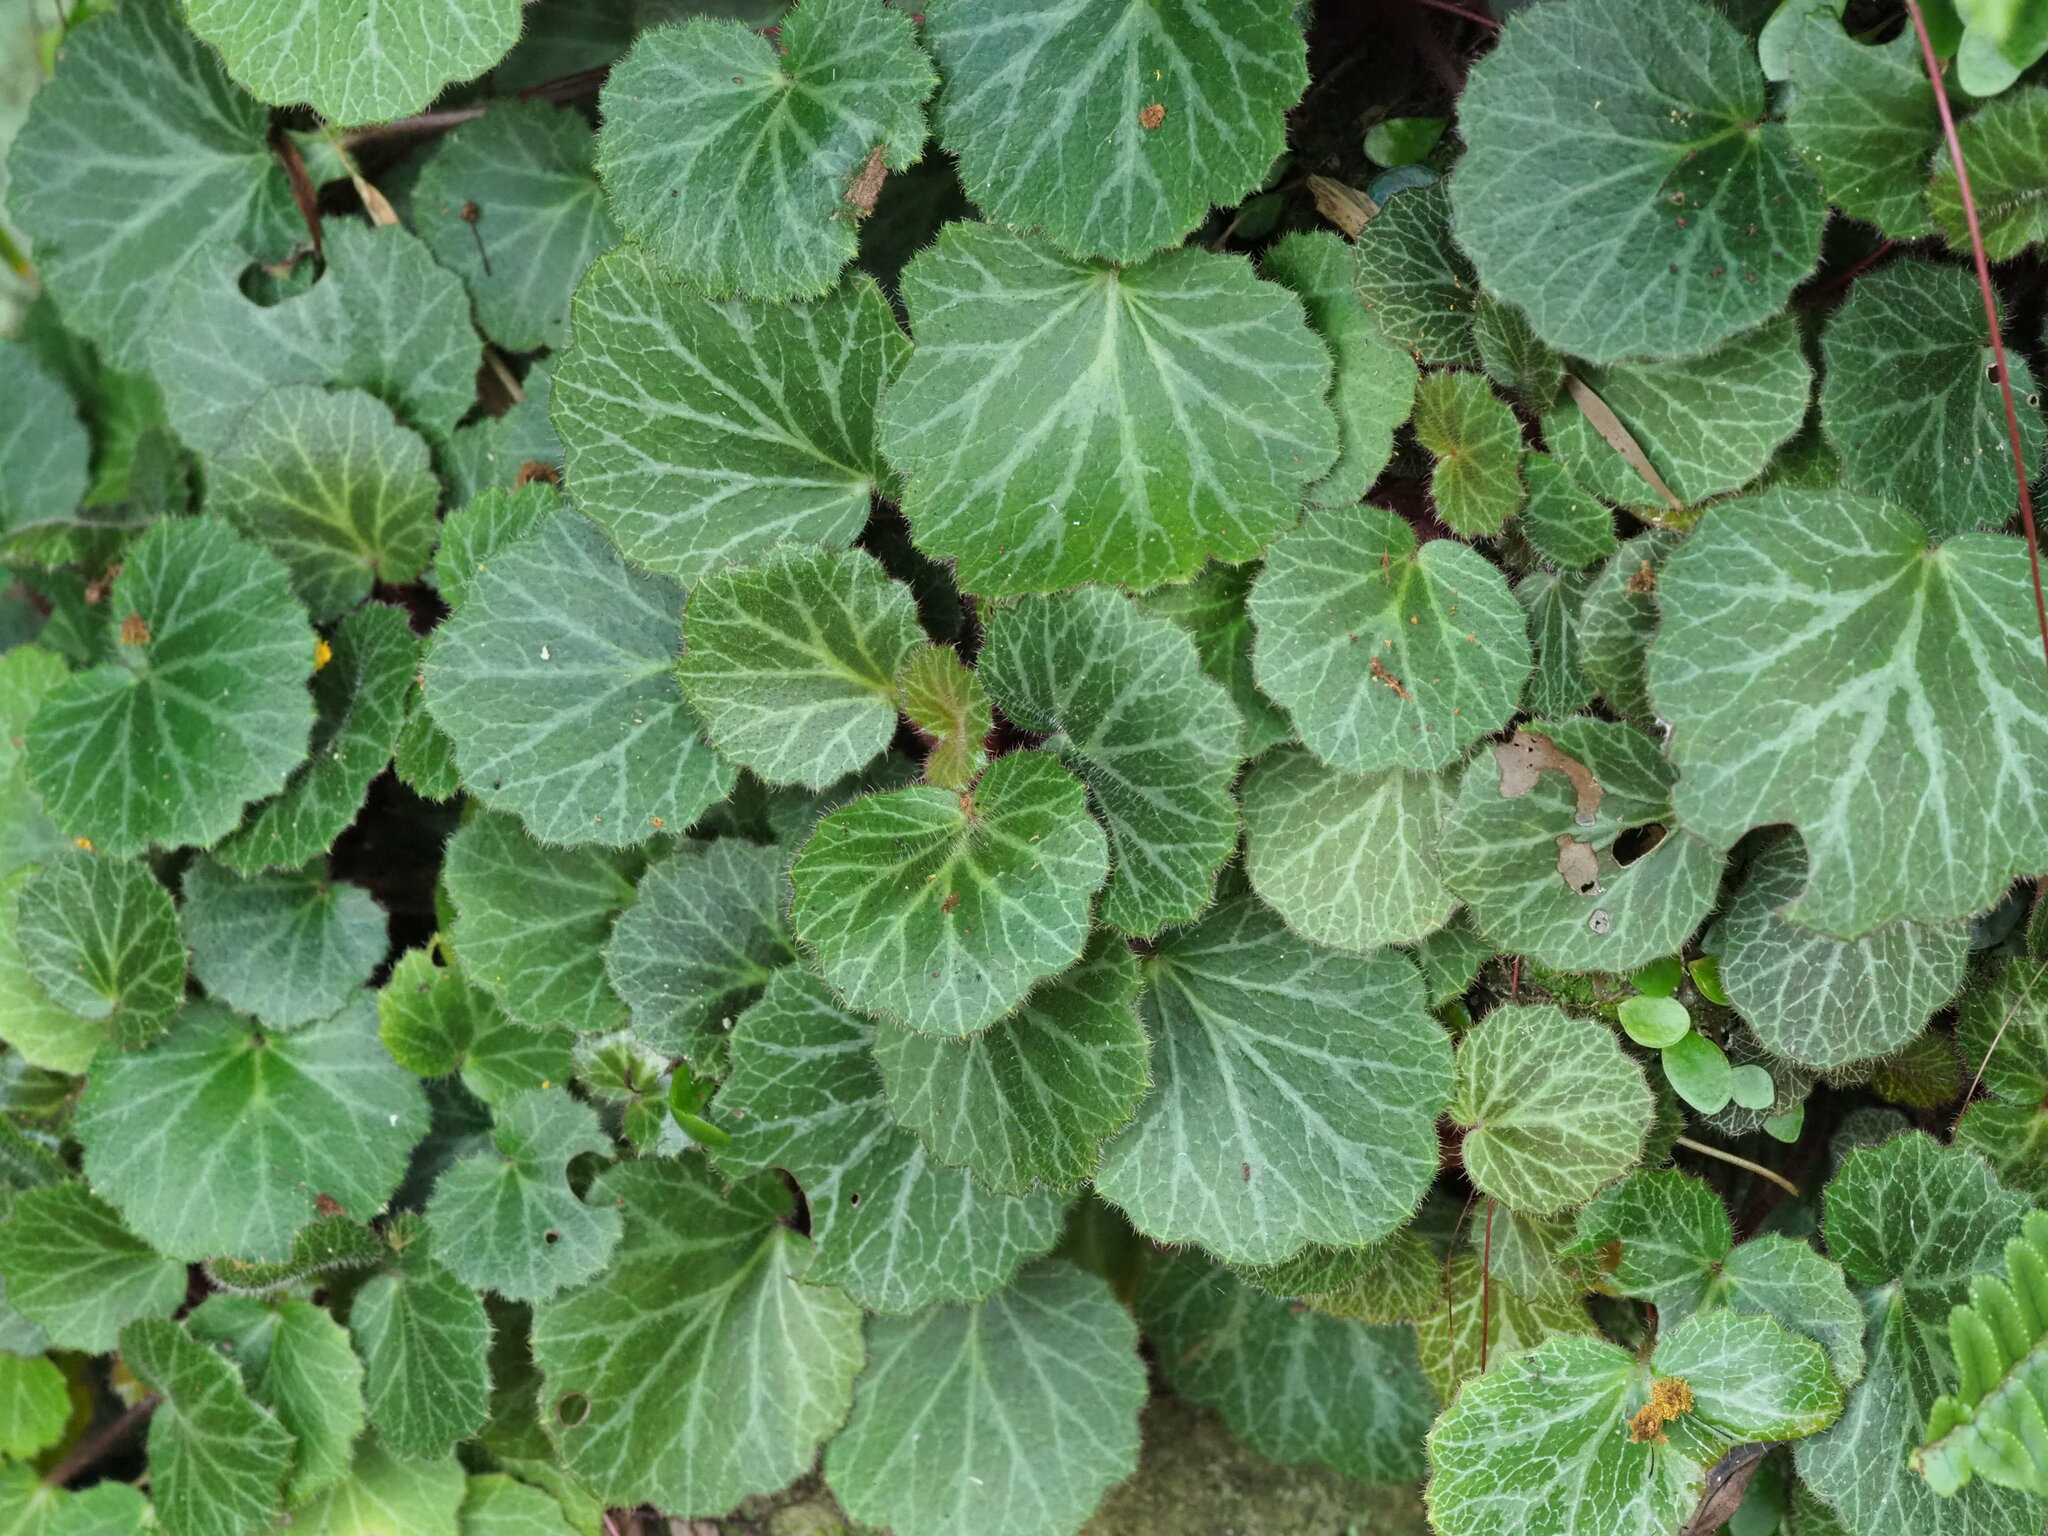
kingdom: Plantae
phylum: Tracheophyta
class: Magnoliopsida
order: Saxifragales
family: Saxifragaceae
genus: Saxifraga
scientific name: Saxifraga stolonifera
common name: Creeping saxifrage
